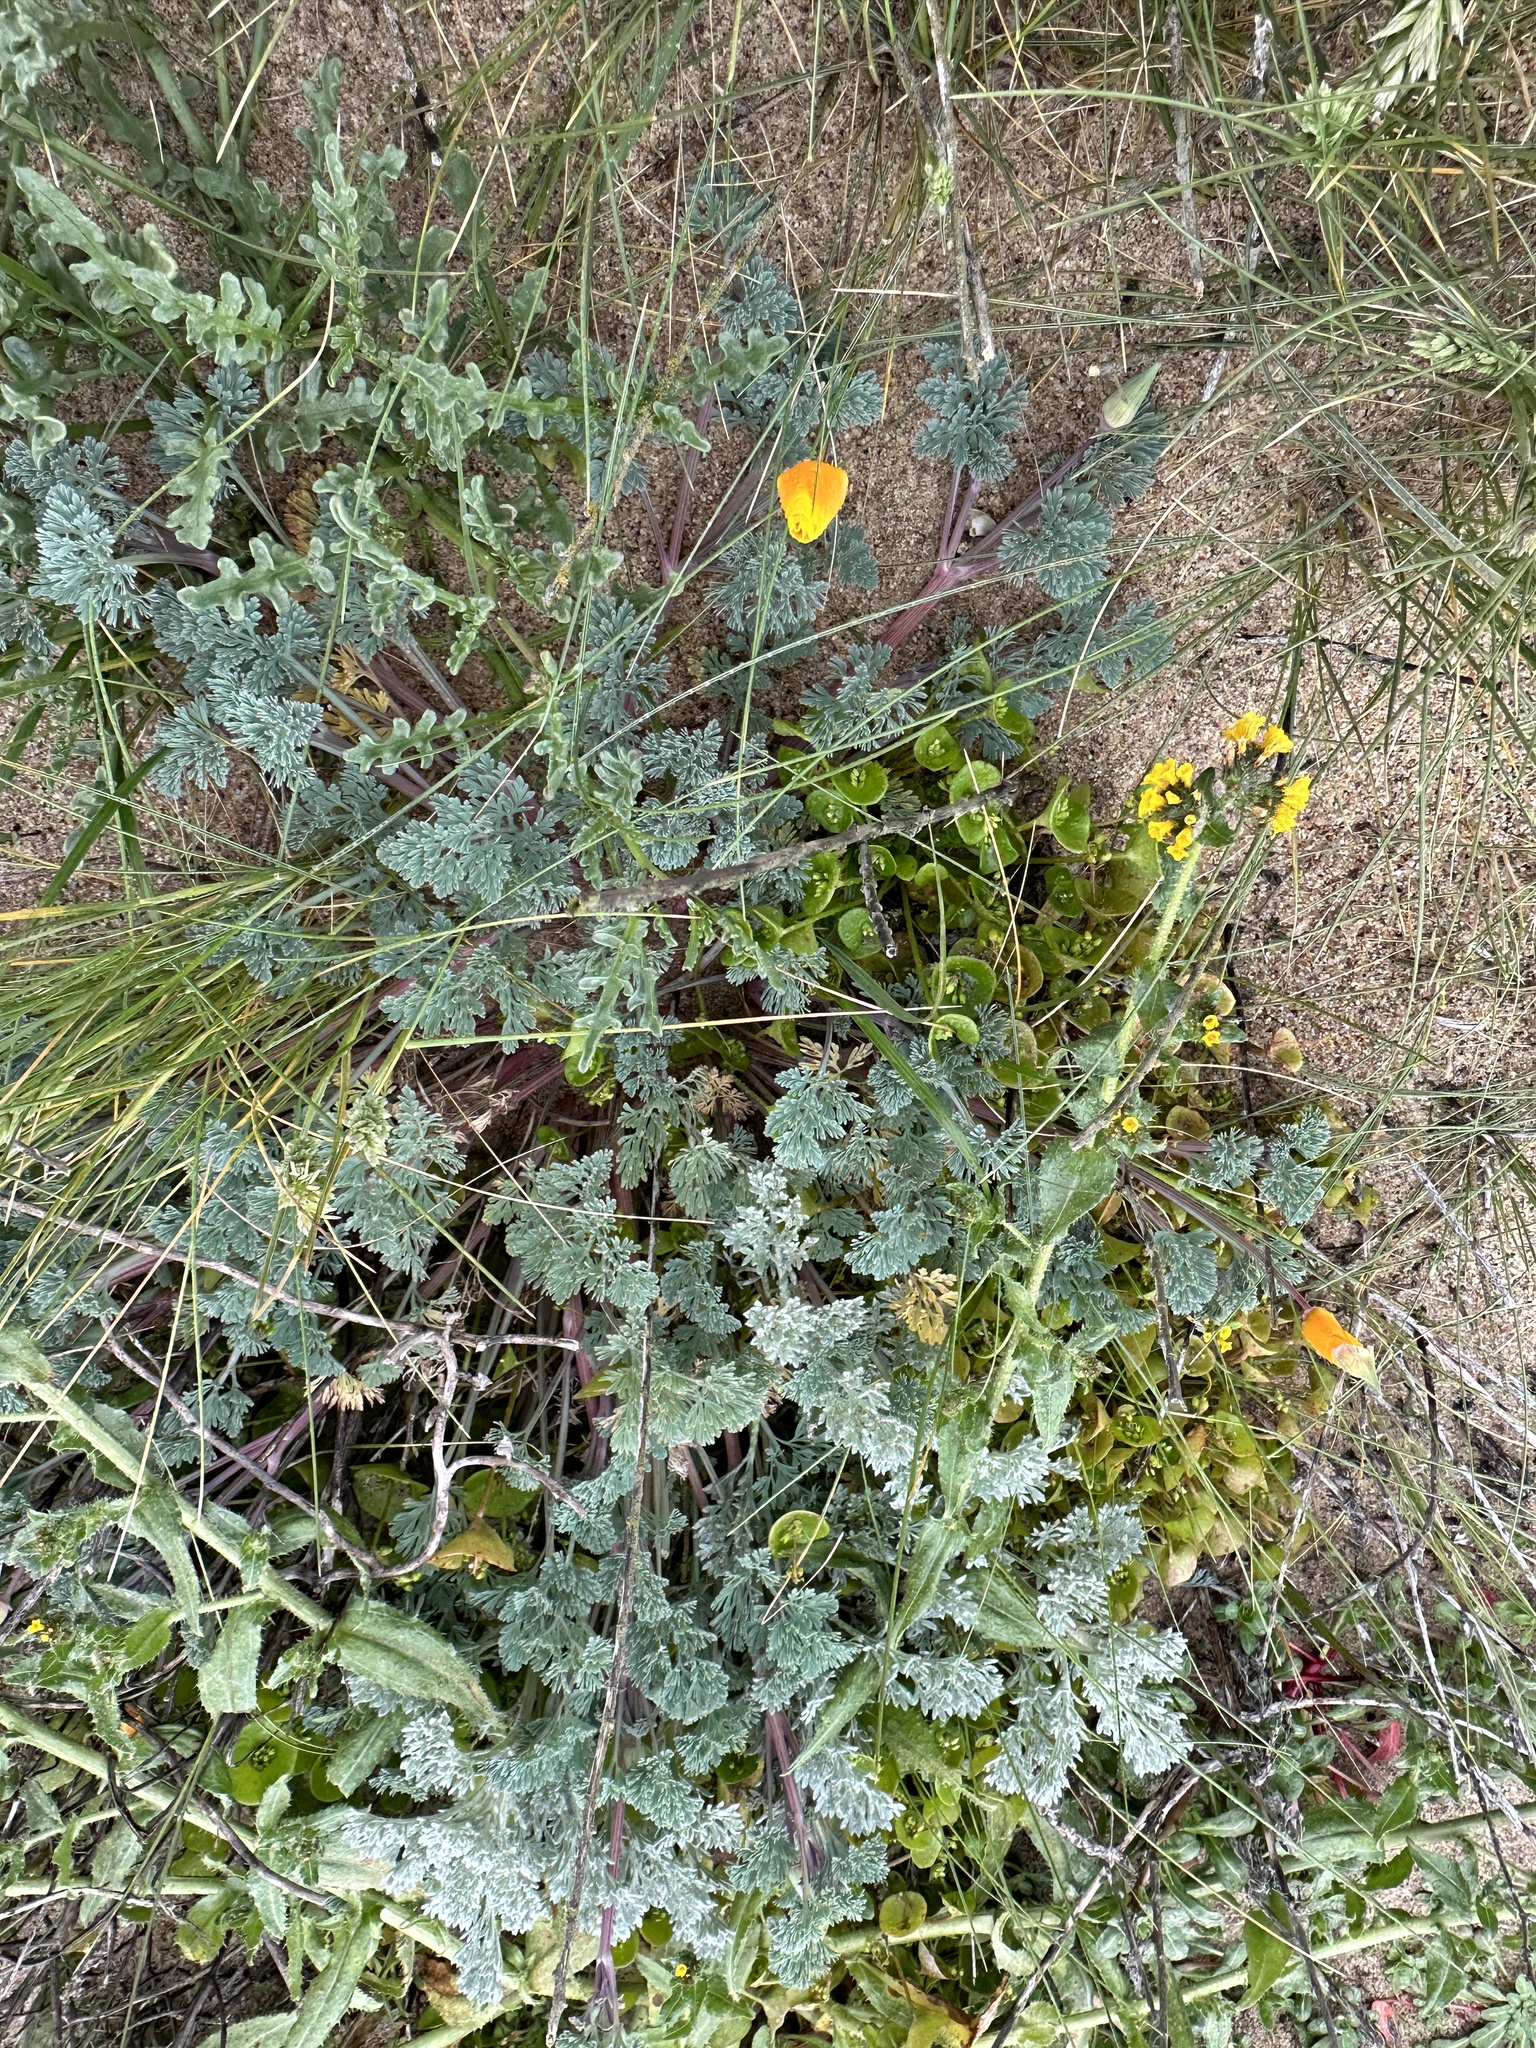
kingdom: Plantae
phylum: Tracheophyta
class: Magnoliopsida
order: Ranunculales
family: Papaveraceae
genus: Eschscholzia
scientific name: Eschscholzia californica
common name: California poppy
